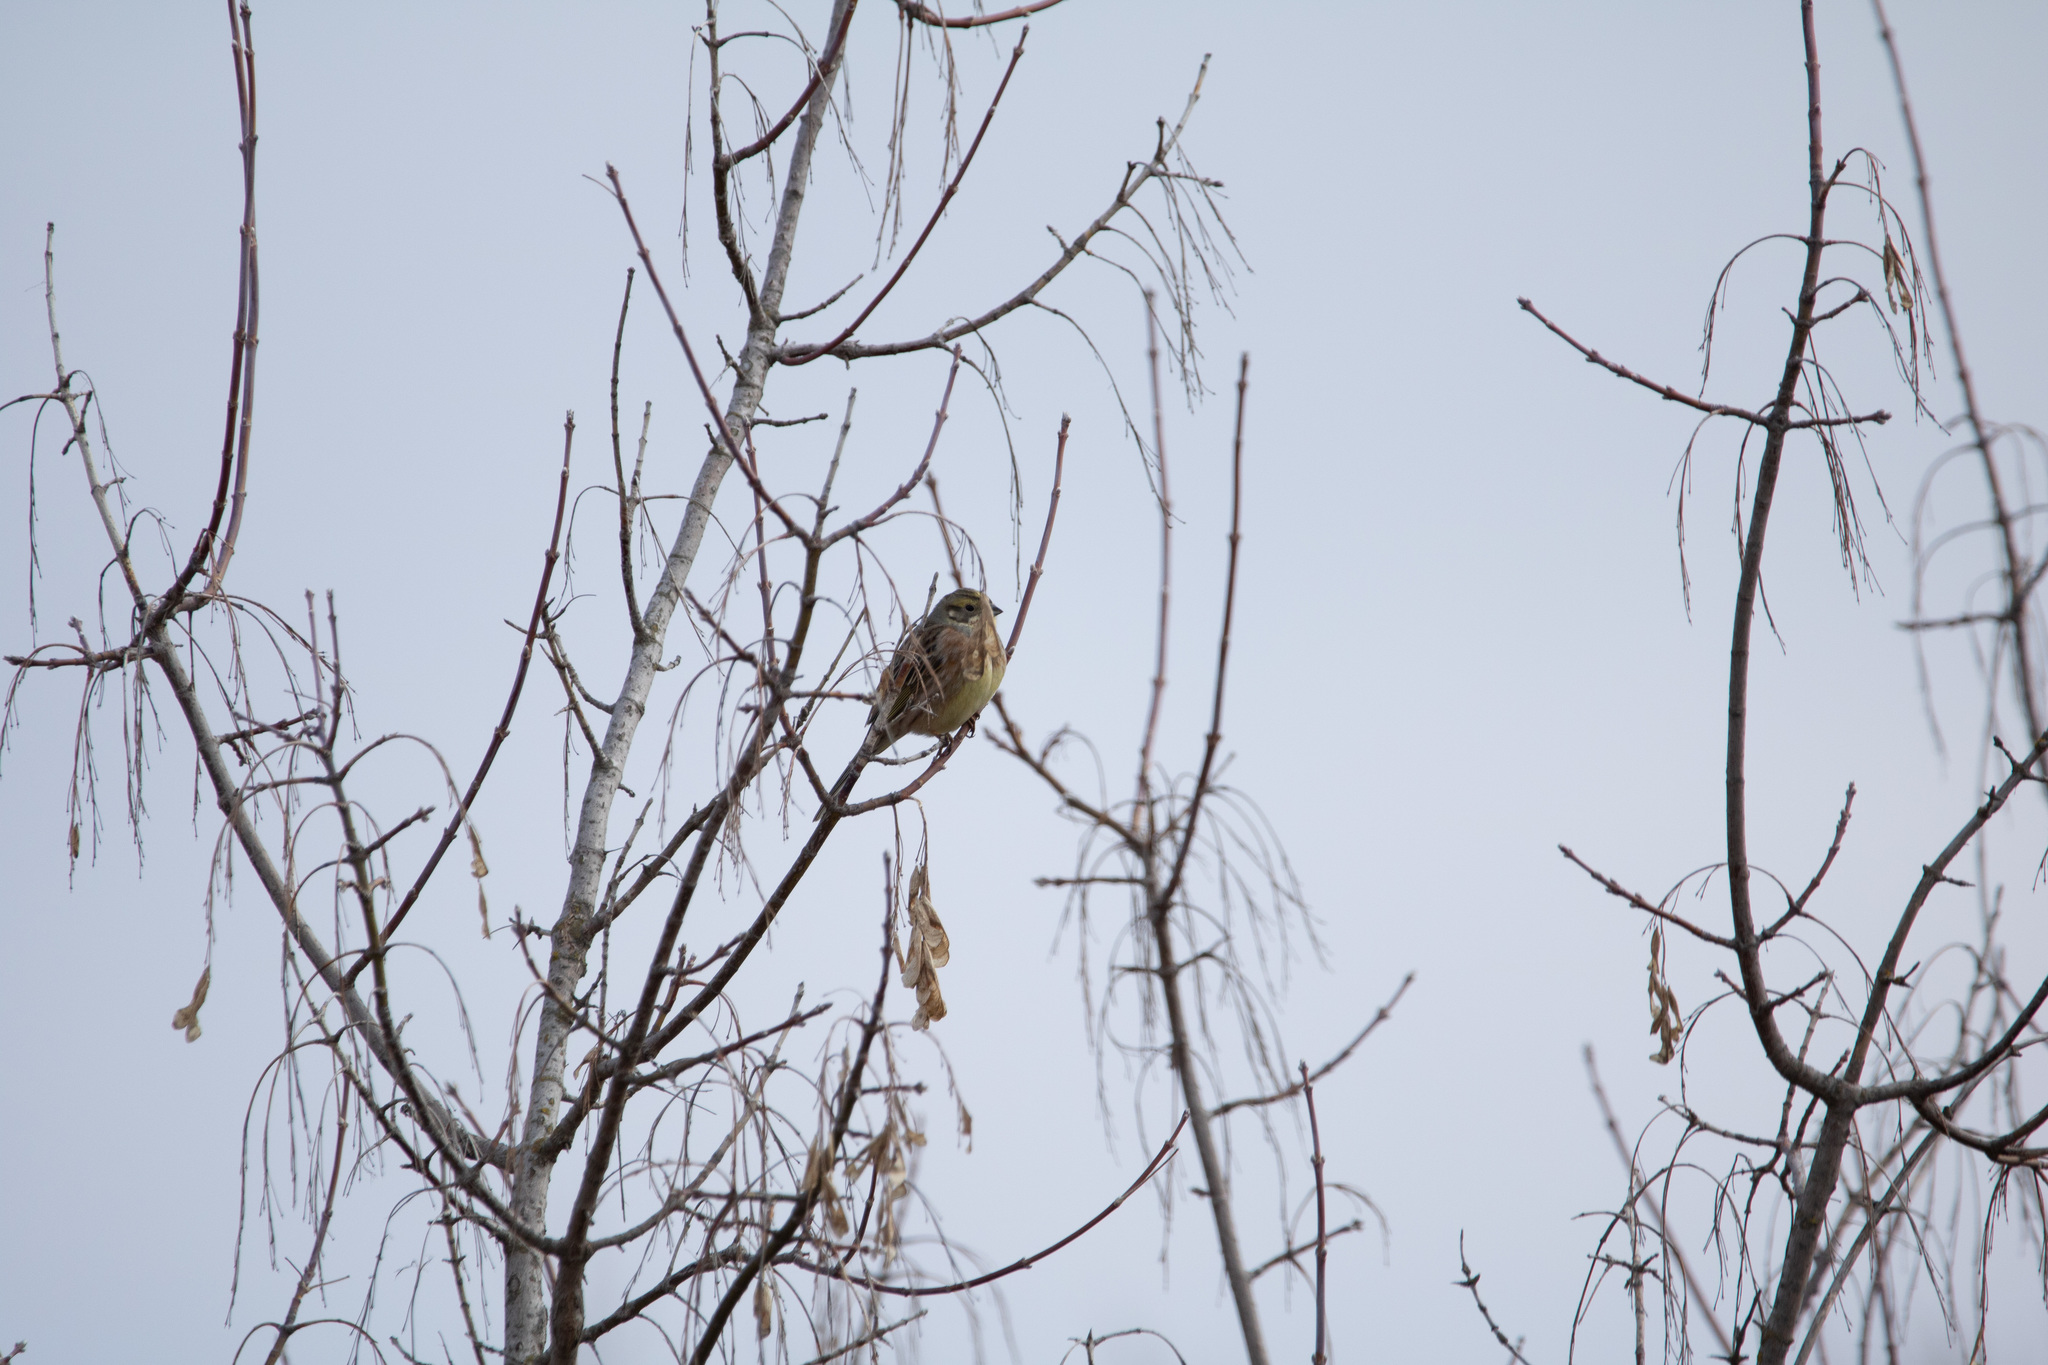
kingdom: Animalia
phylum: Chordata
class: Aves
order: Passeriformes
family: Emberizidae
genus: Emberiza
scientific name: Emberiza citrinella
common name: Yellowhammer
